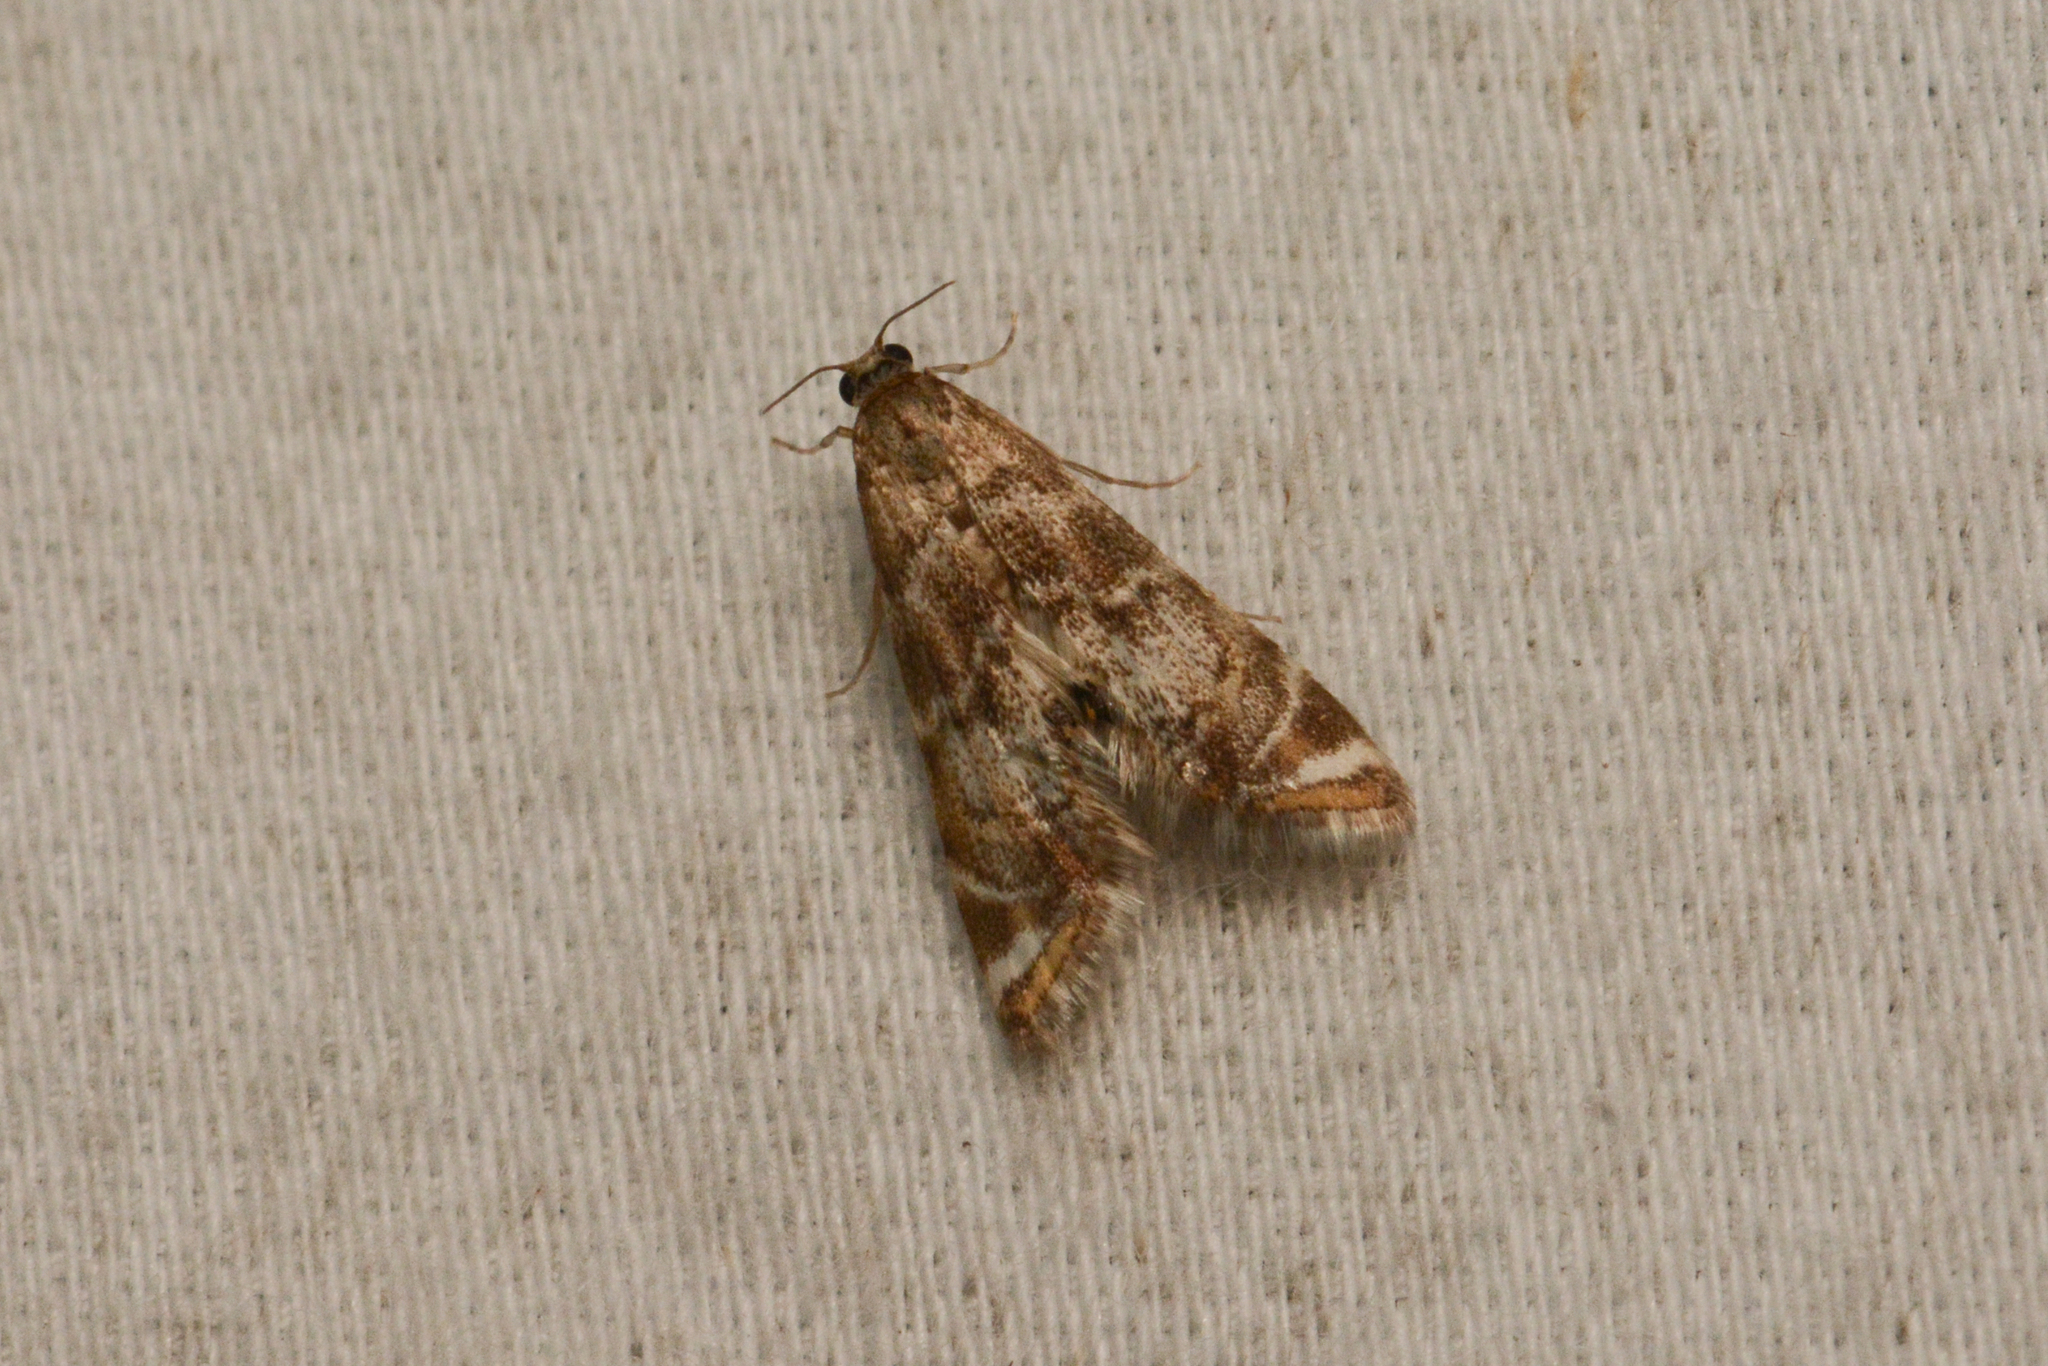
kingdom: Animalia
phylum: Arthropoda
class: Insecta
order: Lepidoptera
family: Crambidae
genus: Petrophila
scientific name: Petrophila confusalis
